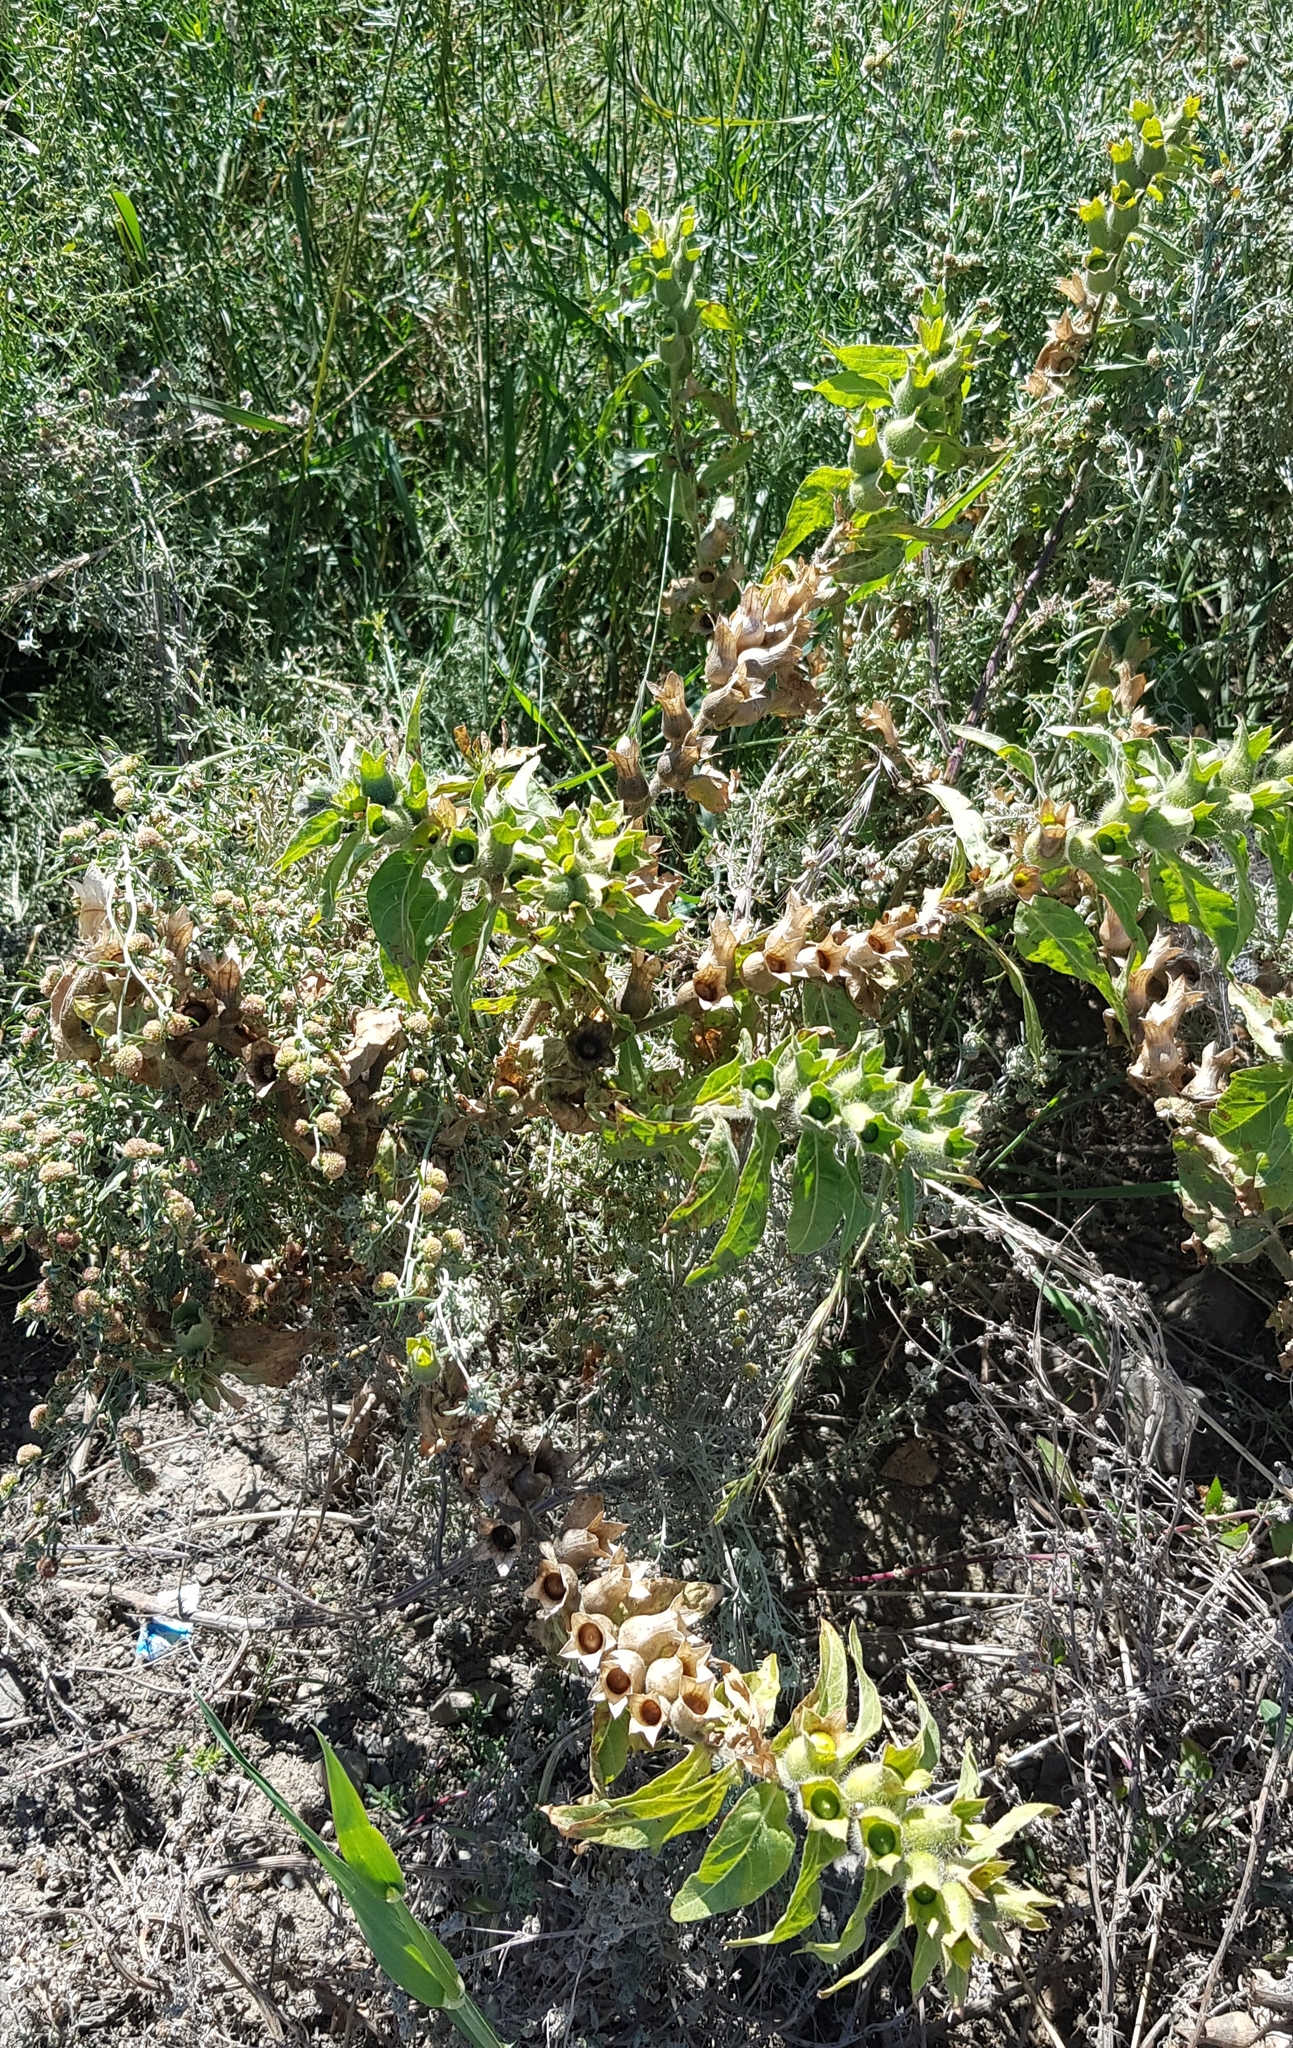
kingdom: Plantae
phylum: Tracheophyta
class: Magnoliopsida
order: Solanales
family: Solanaceae
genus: Hyoscyamus
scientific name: Hyoscyamus niger
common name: Henbane
